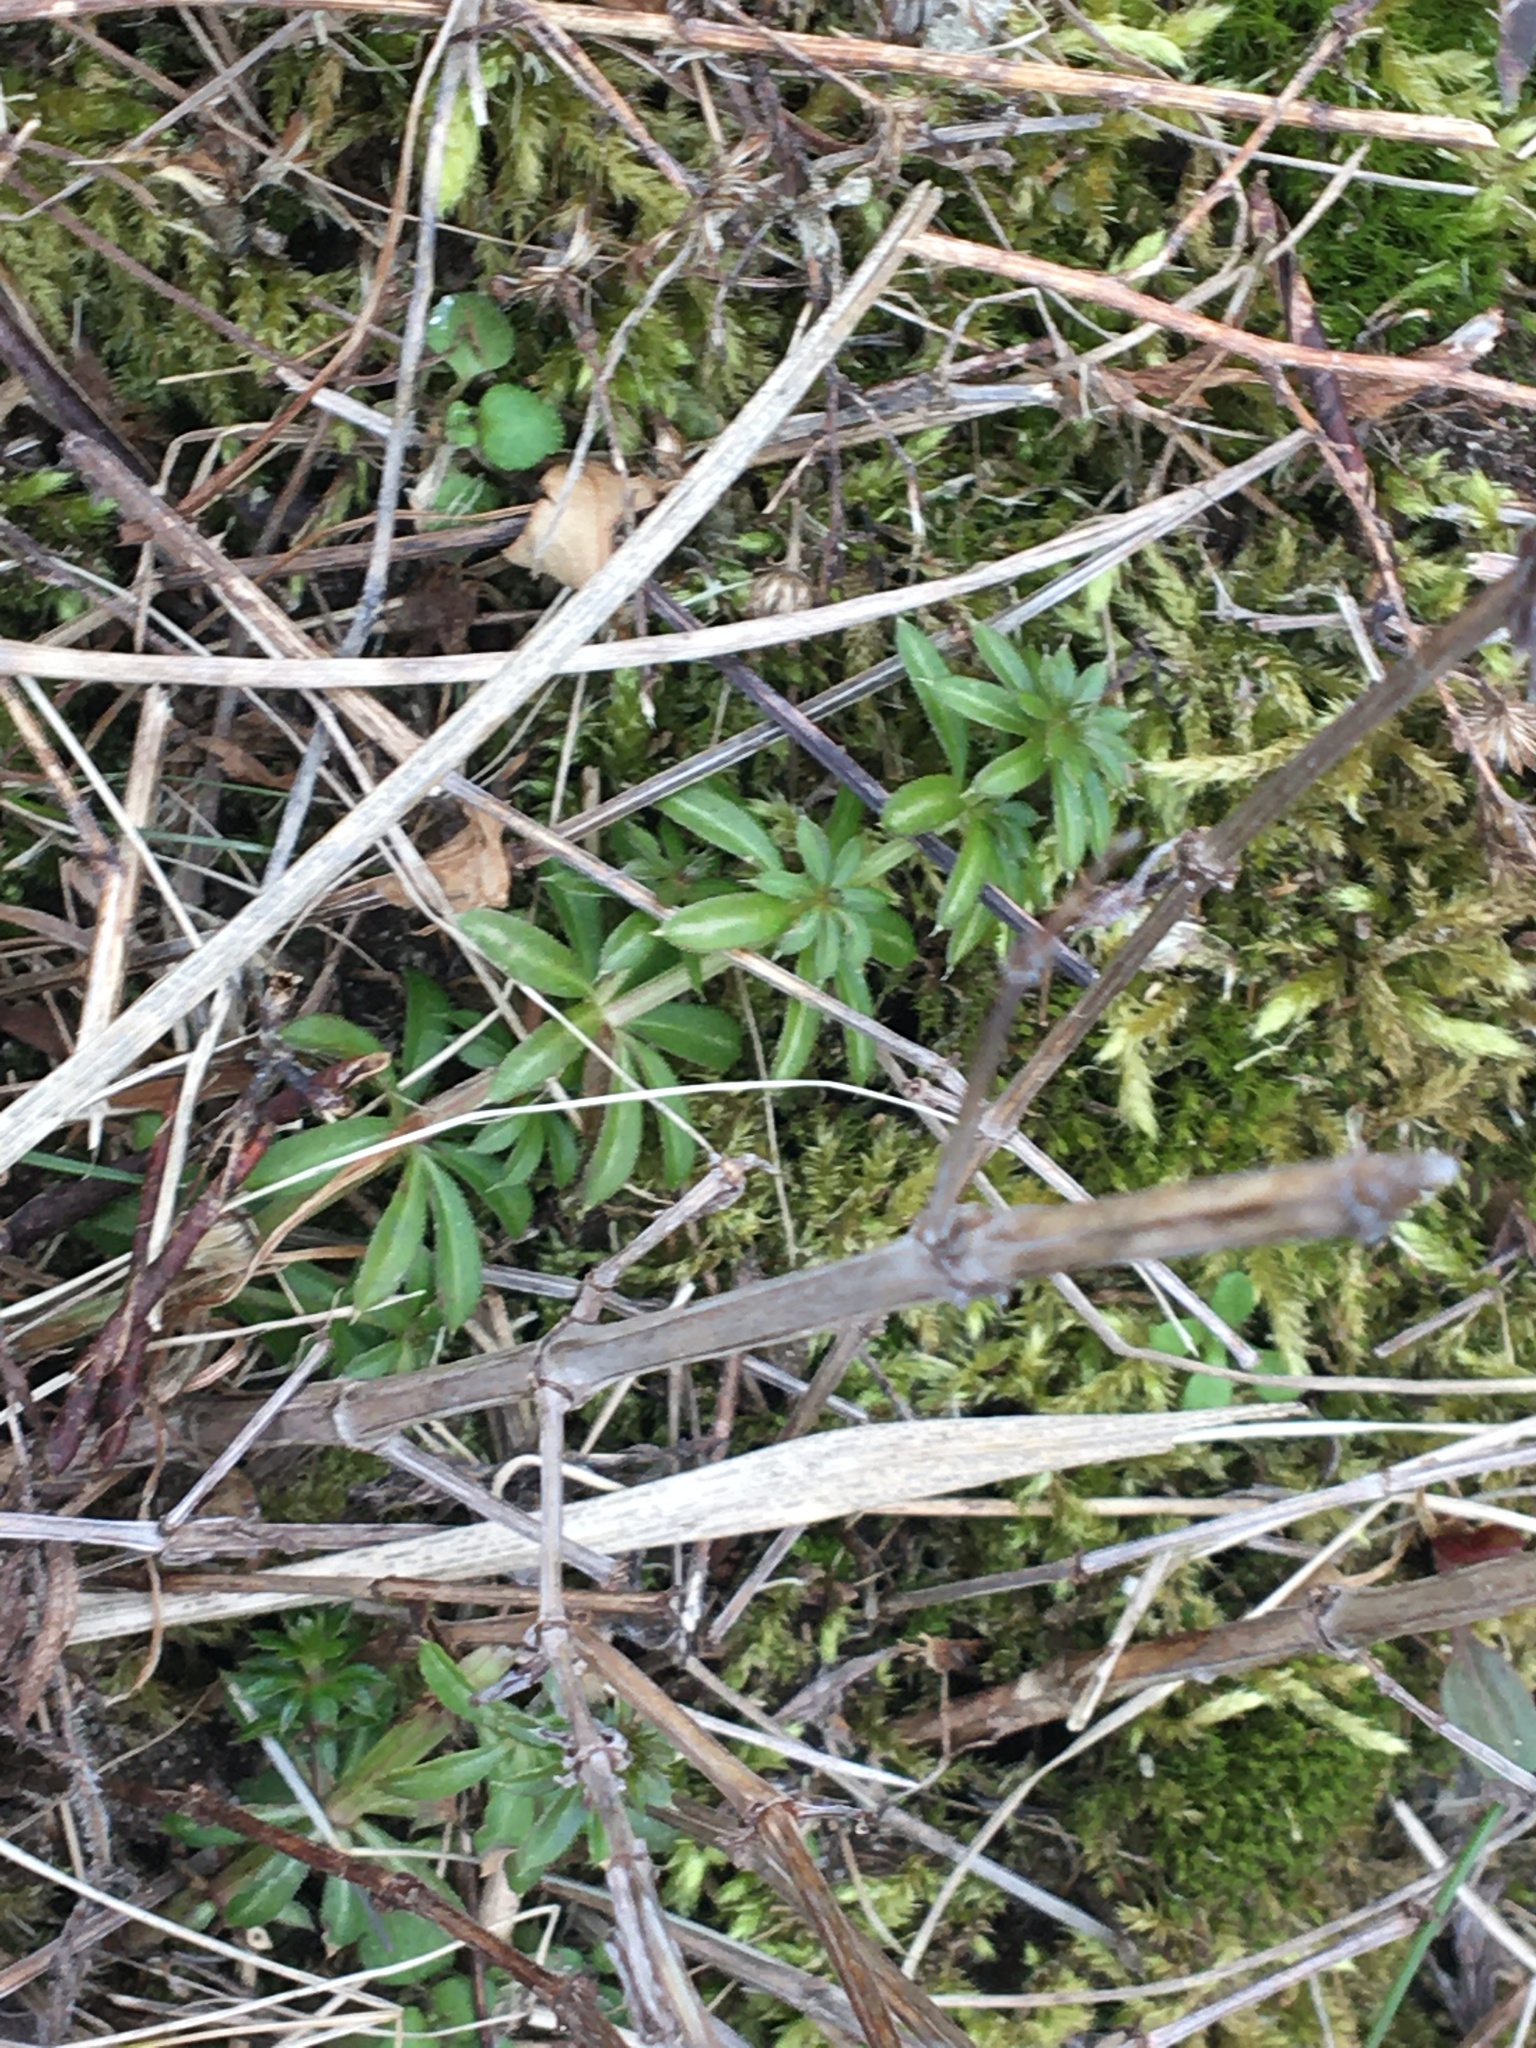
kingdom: Plantae
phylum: Tracheophyta
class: Magnoliopsida
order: Gentianales
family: Rubiaceae
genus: Galium
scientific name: Galium mollugo
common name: Hedge bedstraw
